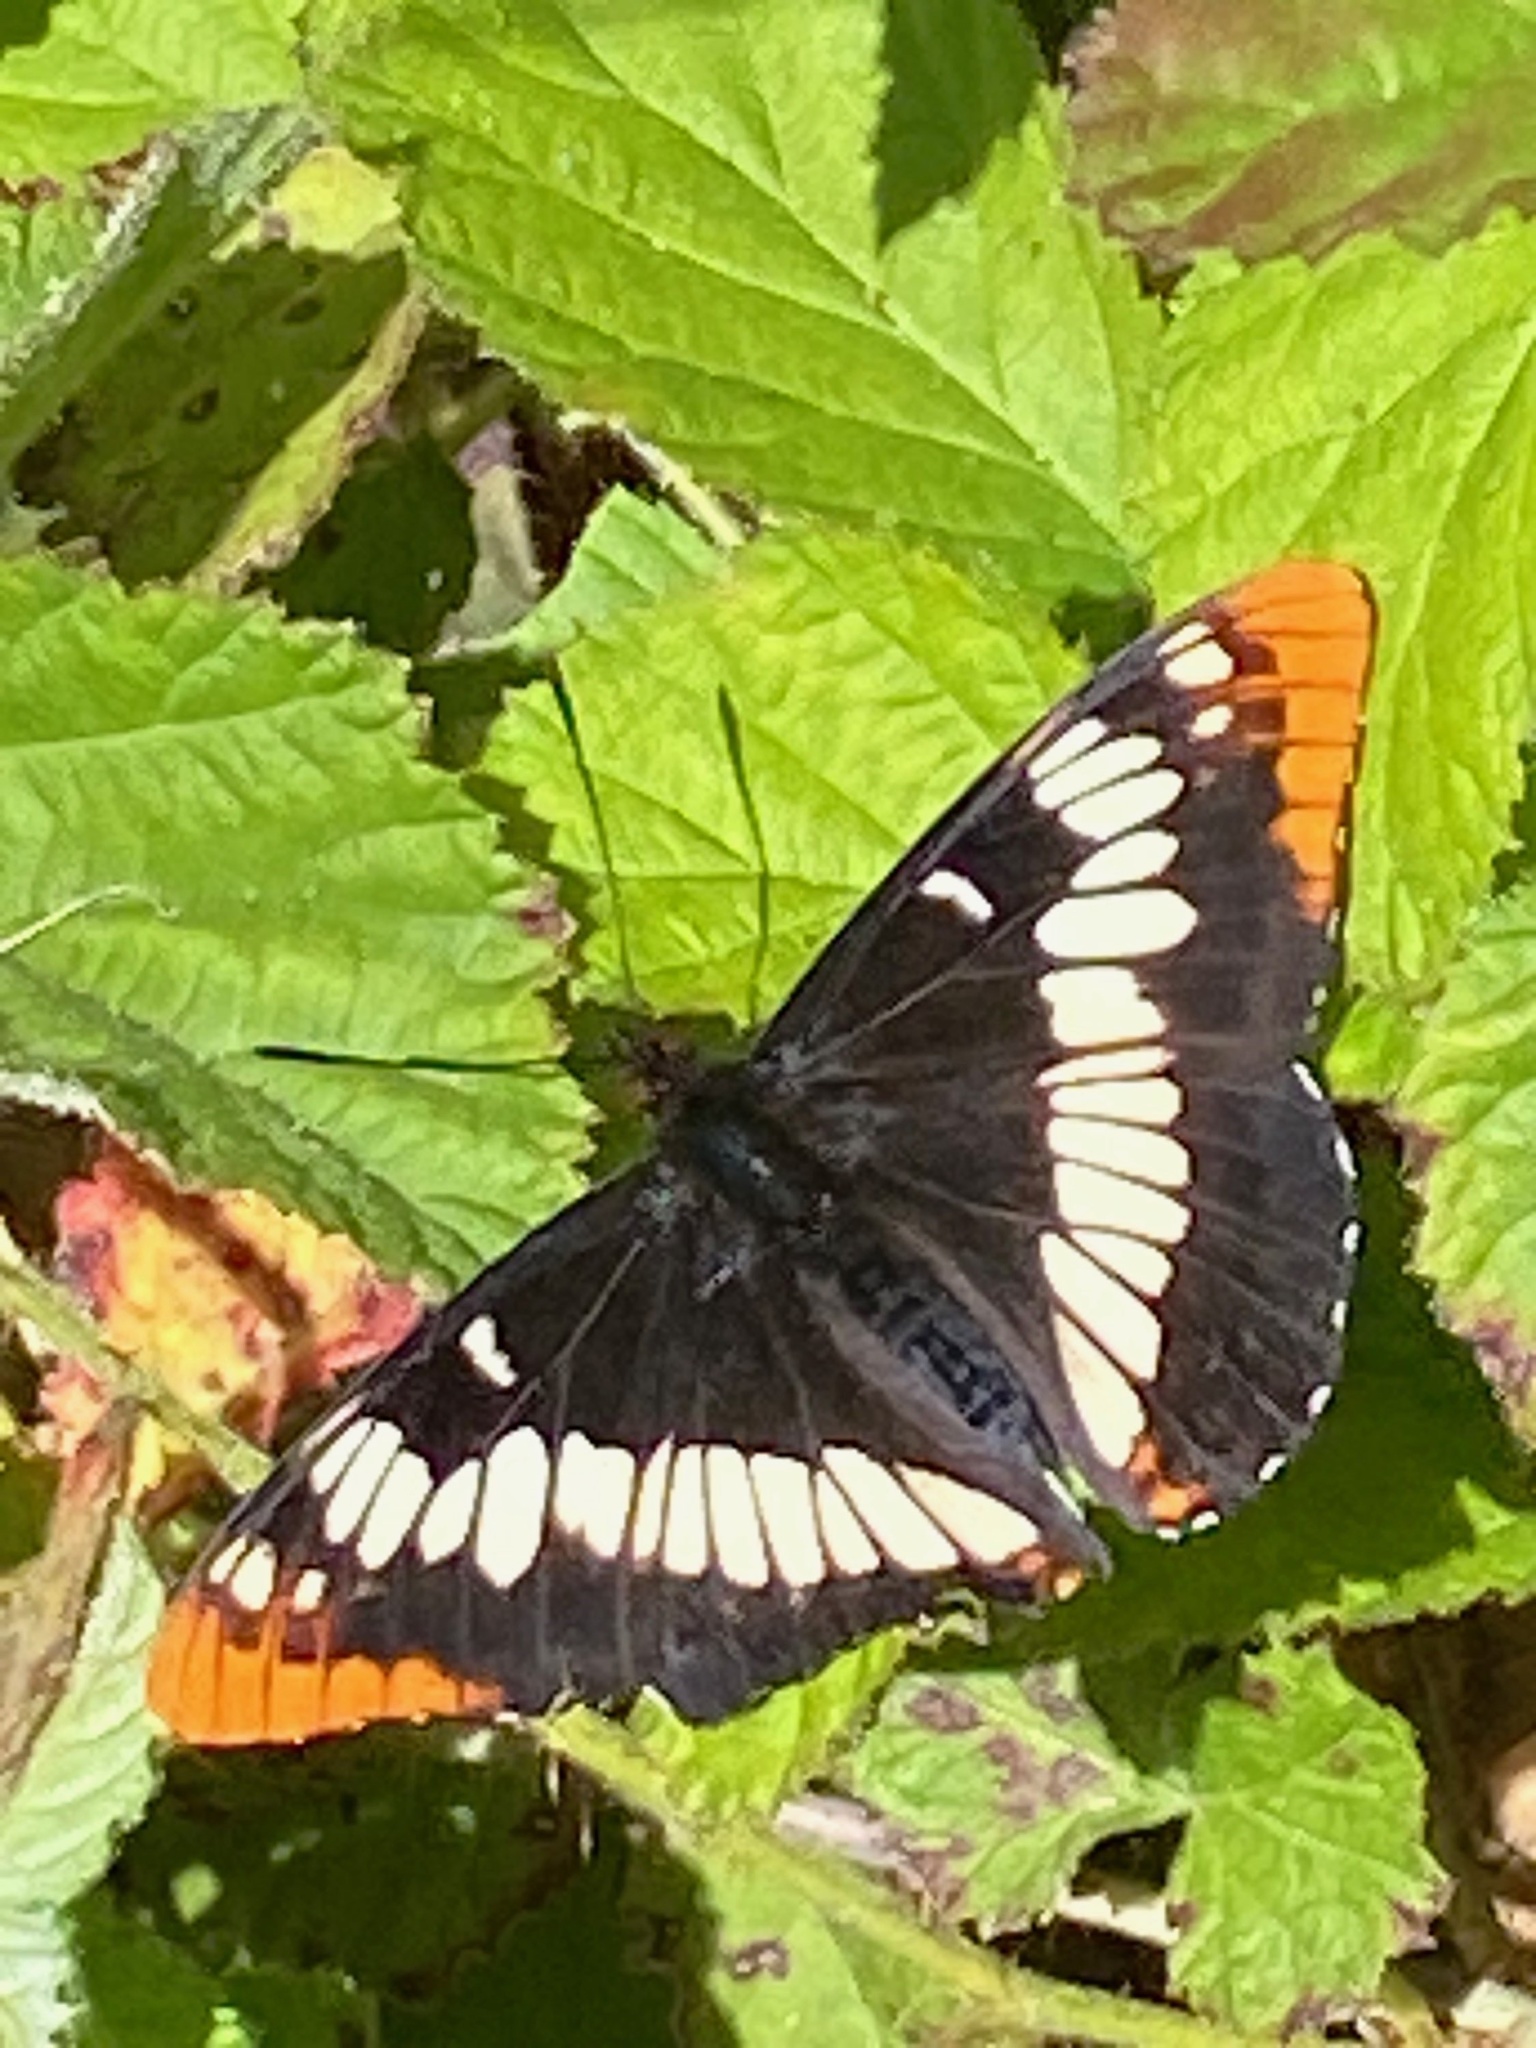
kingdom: Animalia
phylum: Arthropoda
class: Insecta
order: Lepidoptera
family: Nymphalidae
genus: Limenitis
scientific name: Limenitis lorquini
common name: Lorquin's admiral
